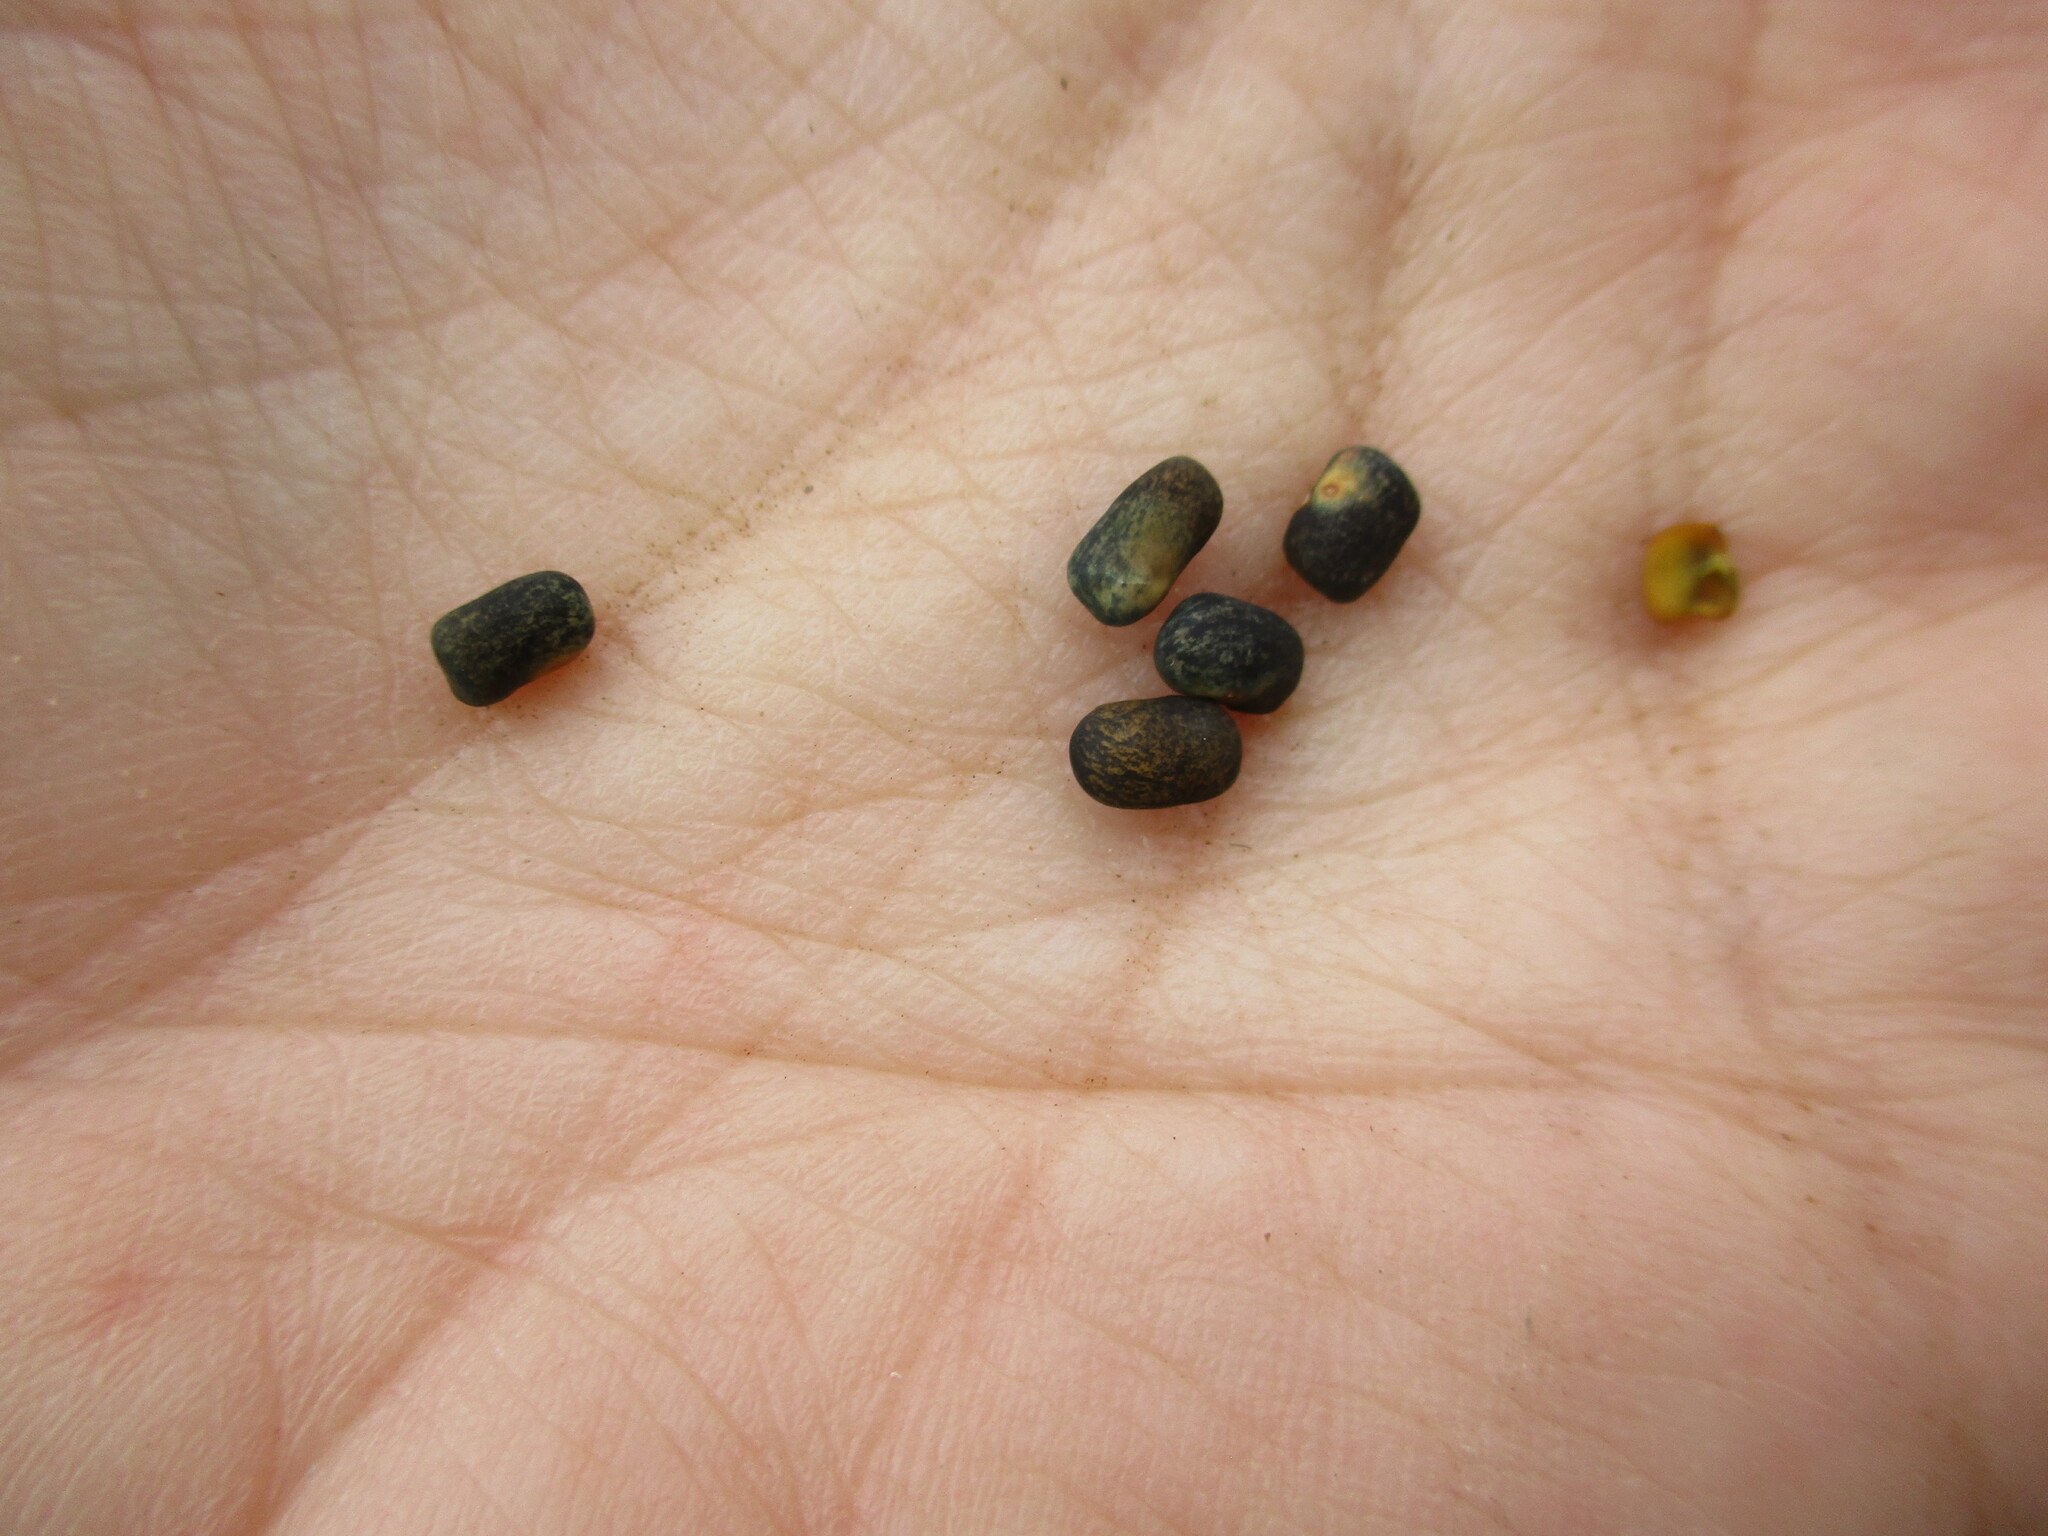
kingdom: Plantae
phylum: Tracheophyta
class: Magnoliopsida
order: Fabales
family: Fabaceae
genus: Sesbania
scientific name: Sesbania pachycarpa
